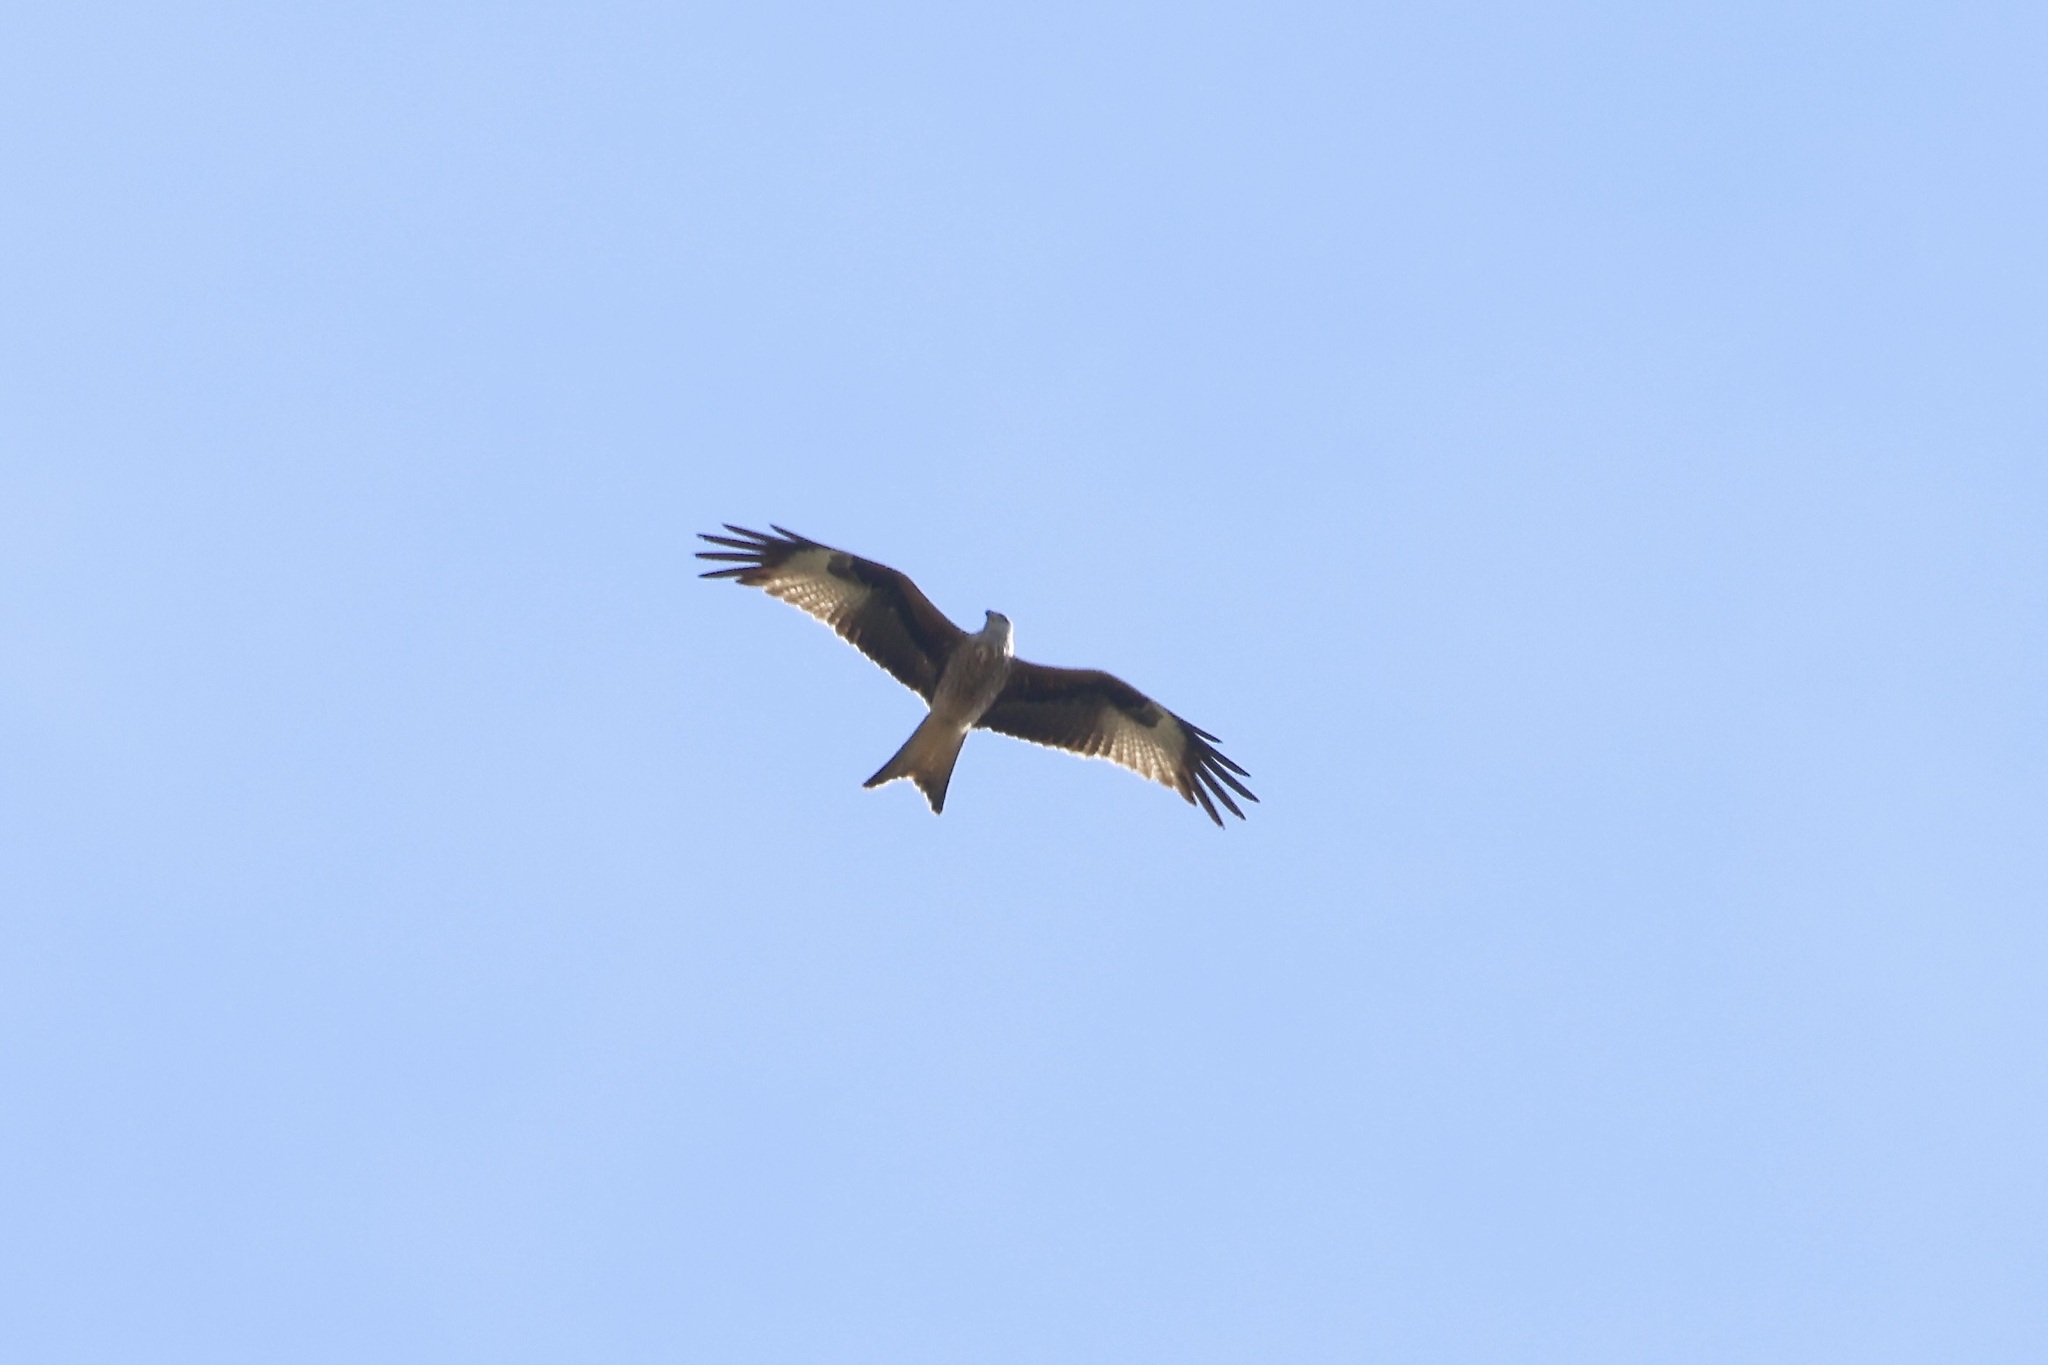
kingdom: Animalia
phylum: Chordata
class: Aves
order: Accipitriformes
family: Accipitridae
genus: Milvus
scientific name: Milvus milvus
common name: Red kite
